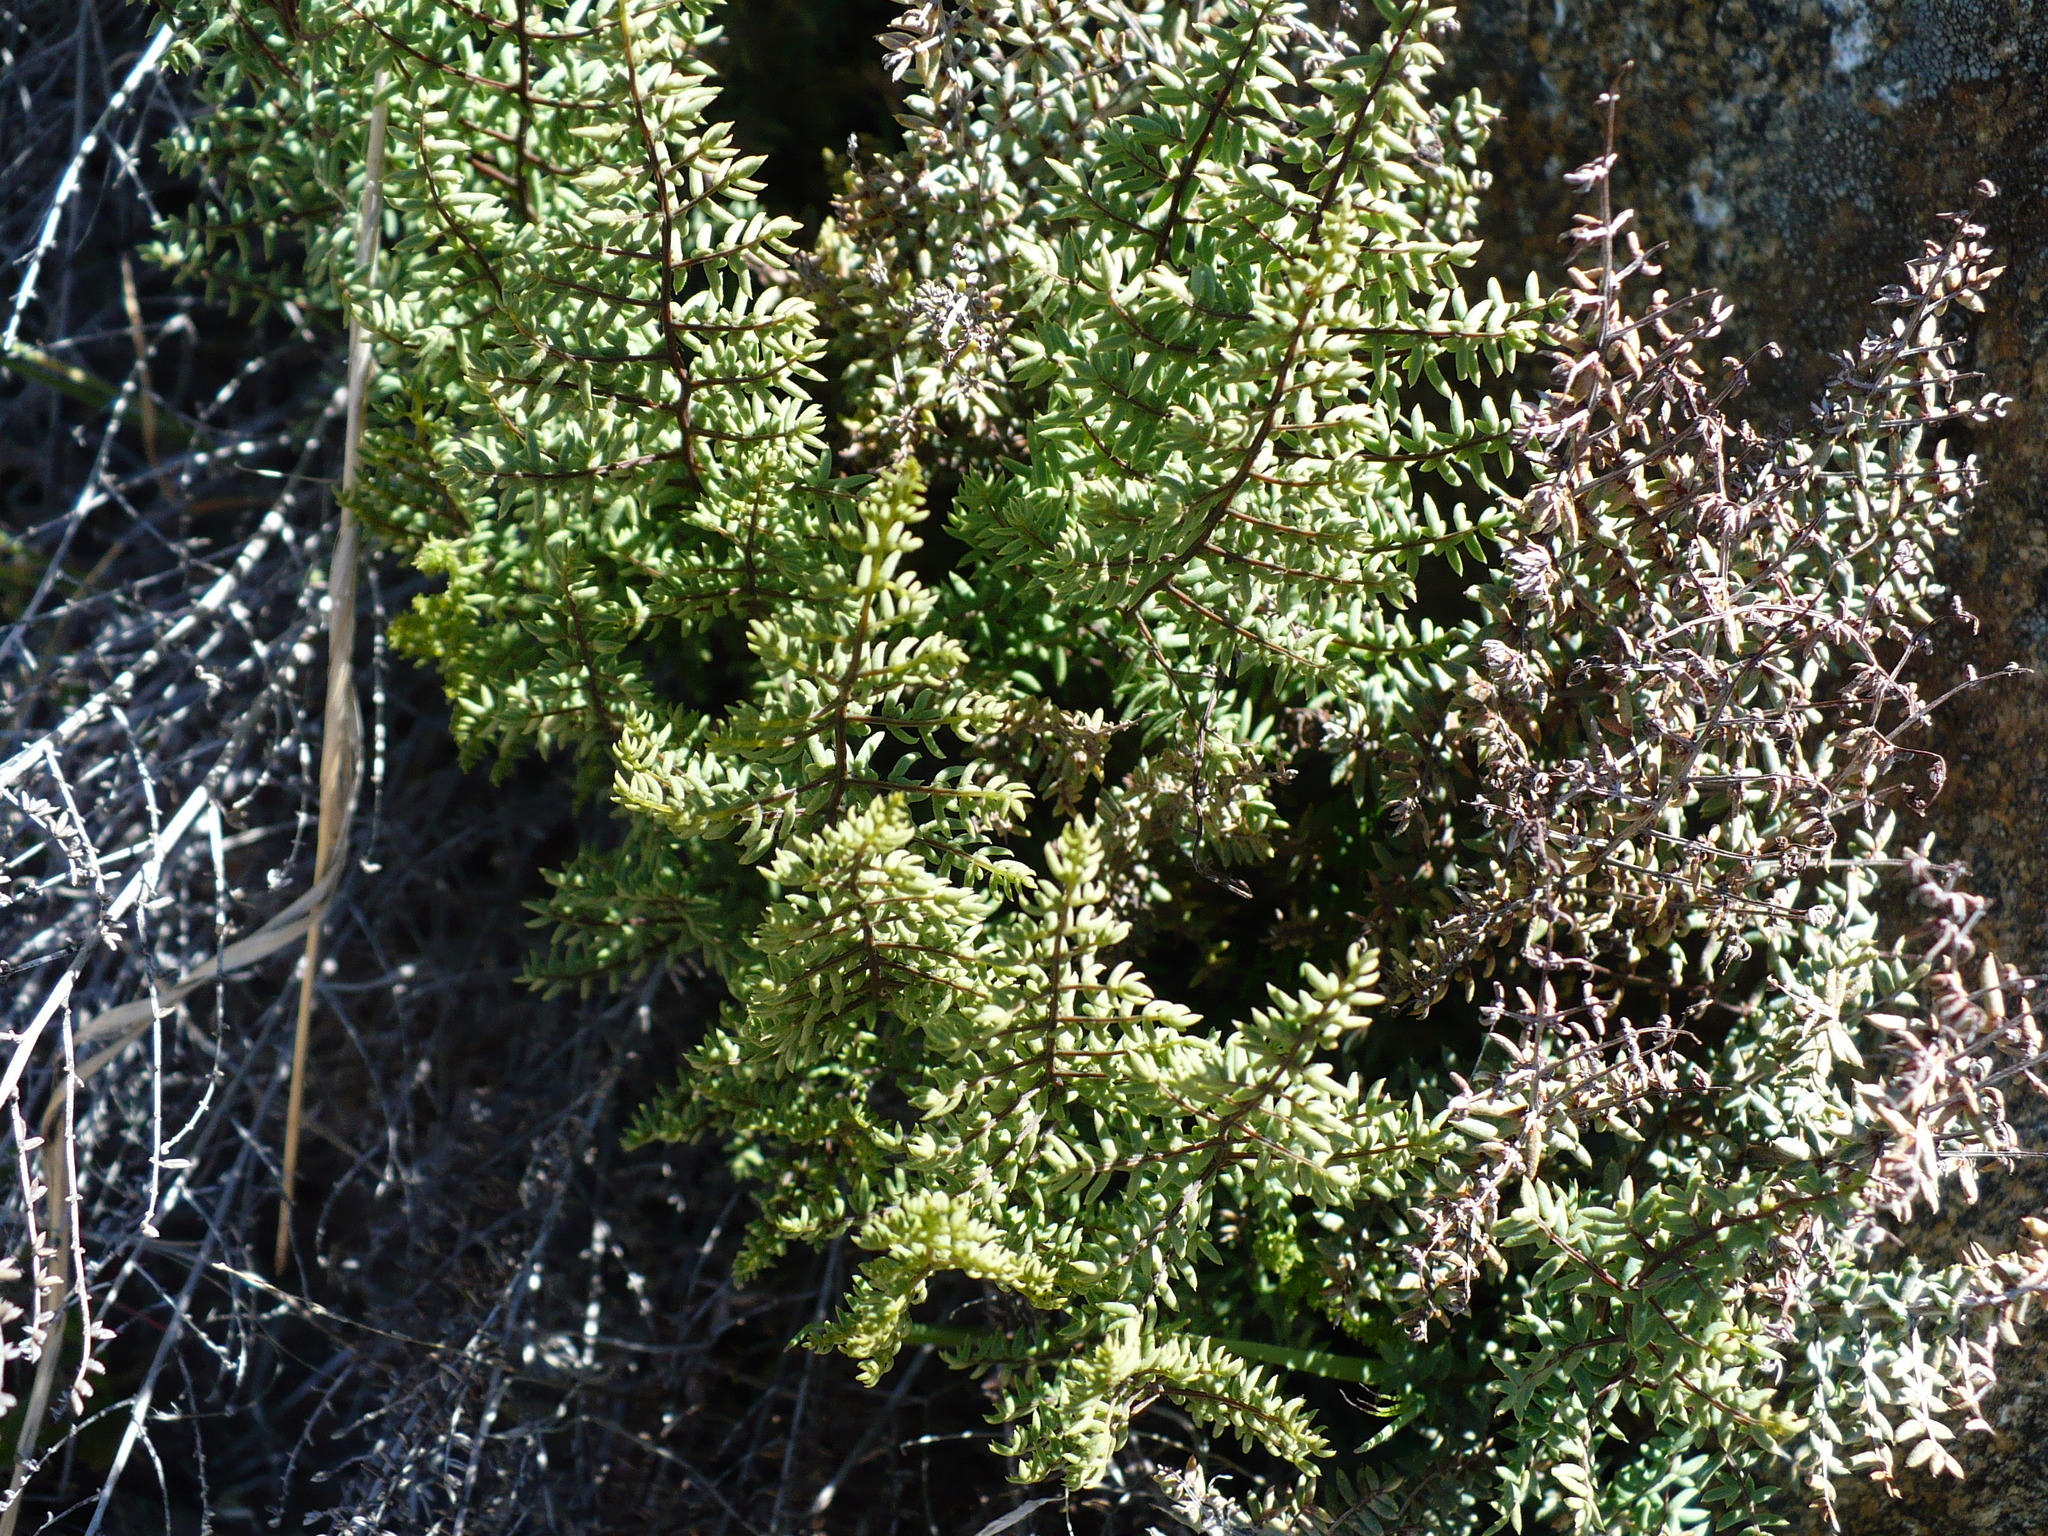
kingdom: Plantae
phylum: Tracheophyta
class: Polypodiopsida
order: Polypodiales
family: Pteridaceae
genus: Pellaea
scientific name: Pellaea mucronata
